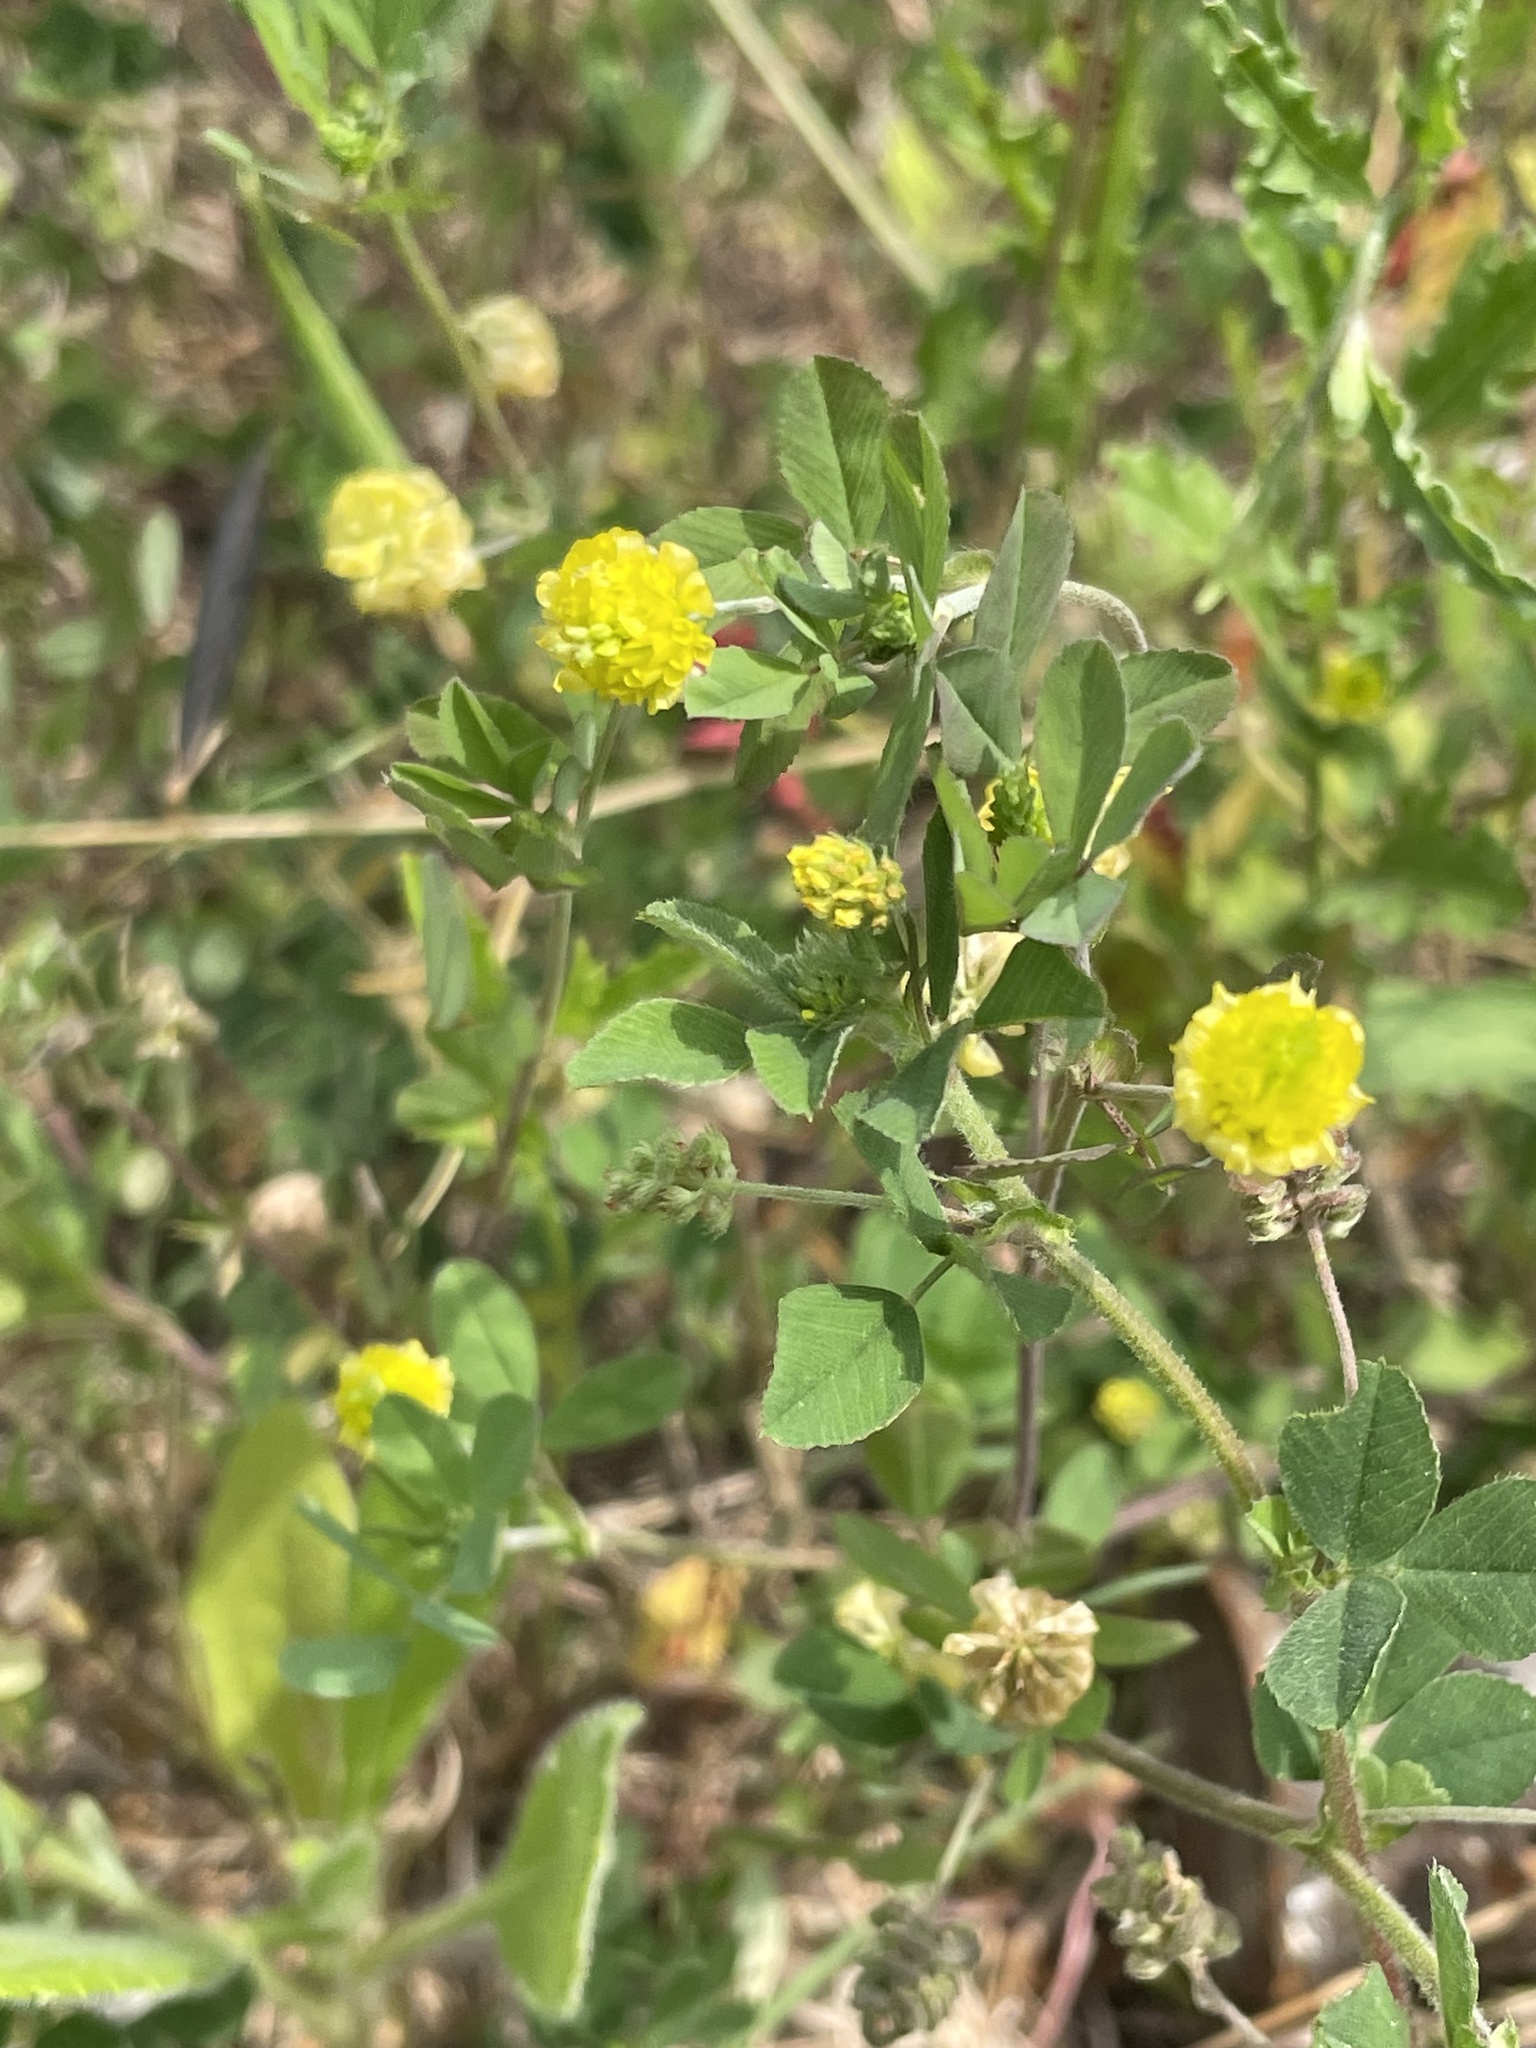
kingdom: Plantae
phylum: Tracheophyta
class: Magnoliopsida
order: Fabales
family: Fabaceae
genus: Trifolium
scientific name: Trifolium campestre
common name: Field clover
